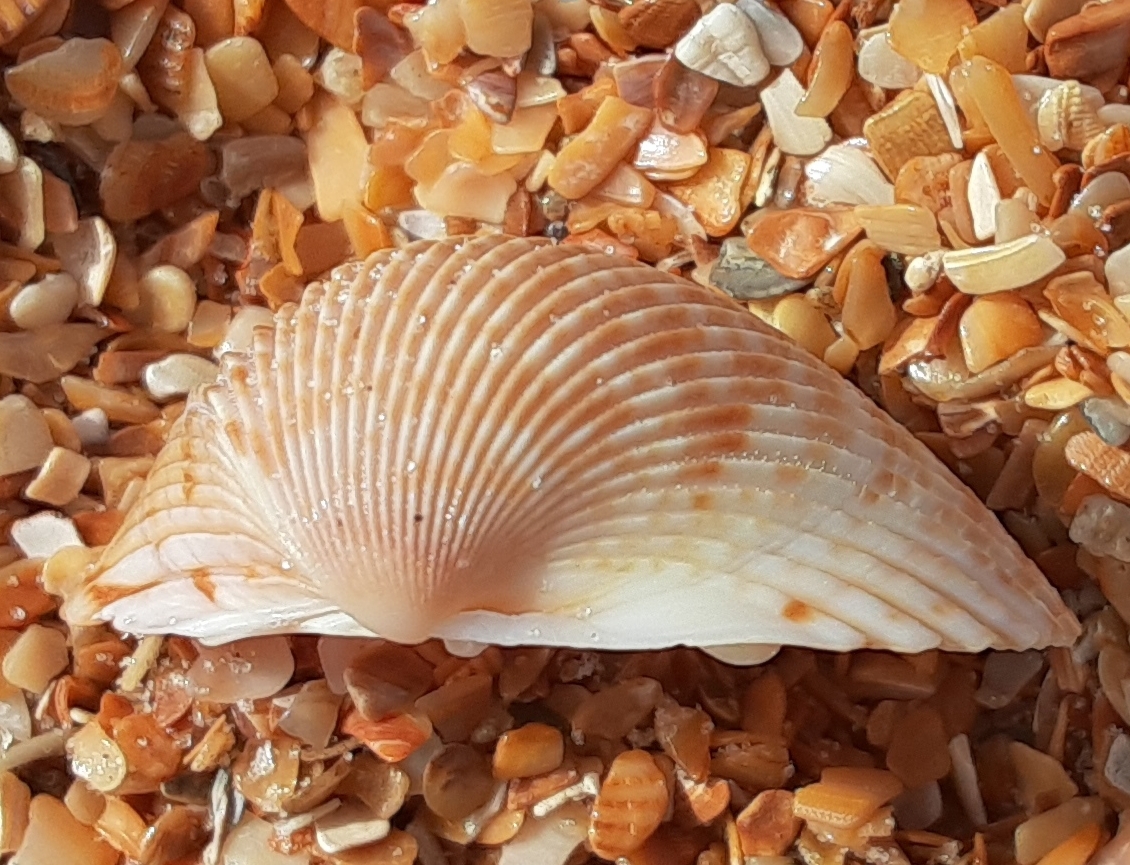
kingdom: Animalia
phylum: Mollusca
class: Bivalvia
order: Cardiida
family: Cardiidae
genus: Dinocardium
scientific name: Dinocardium robustum
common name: Atlantic giant cockle
